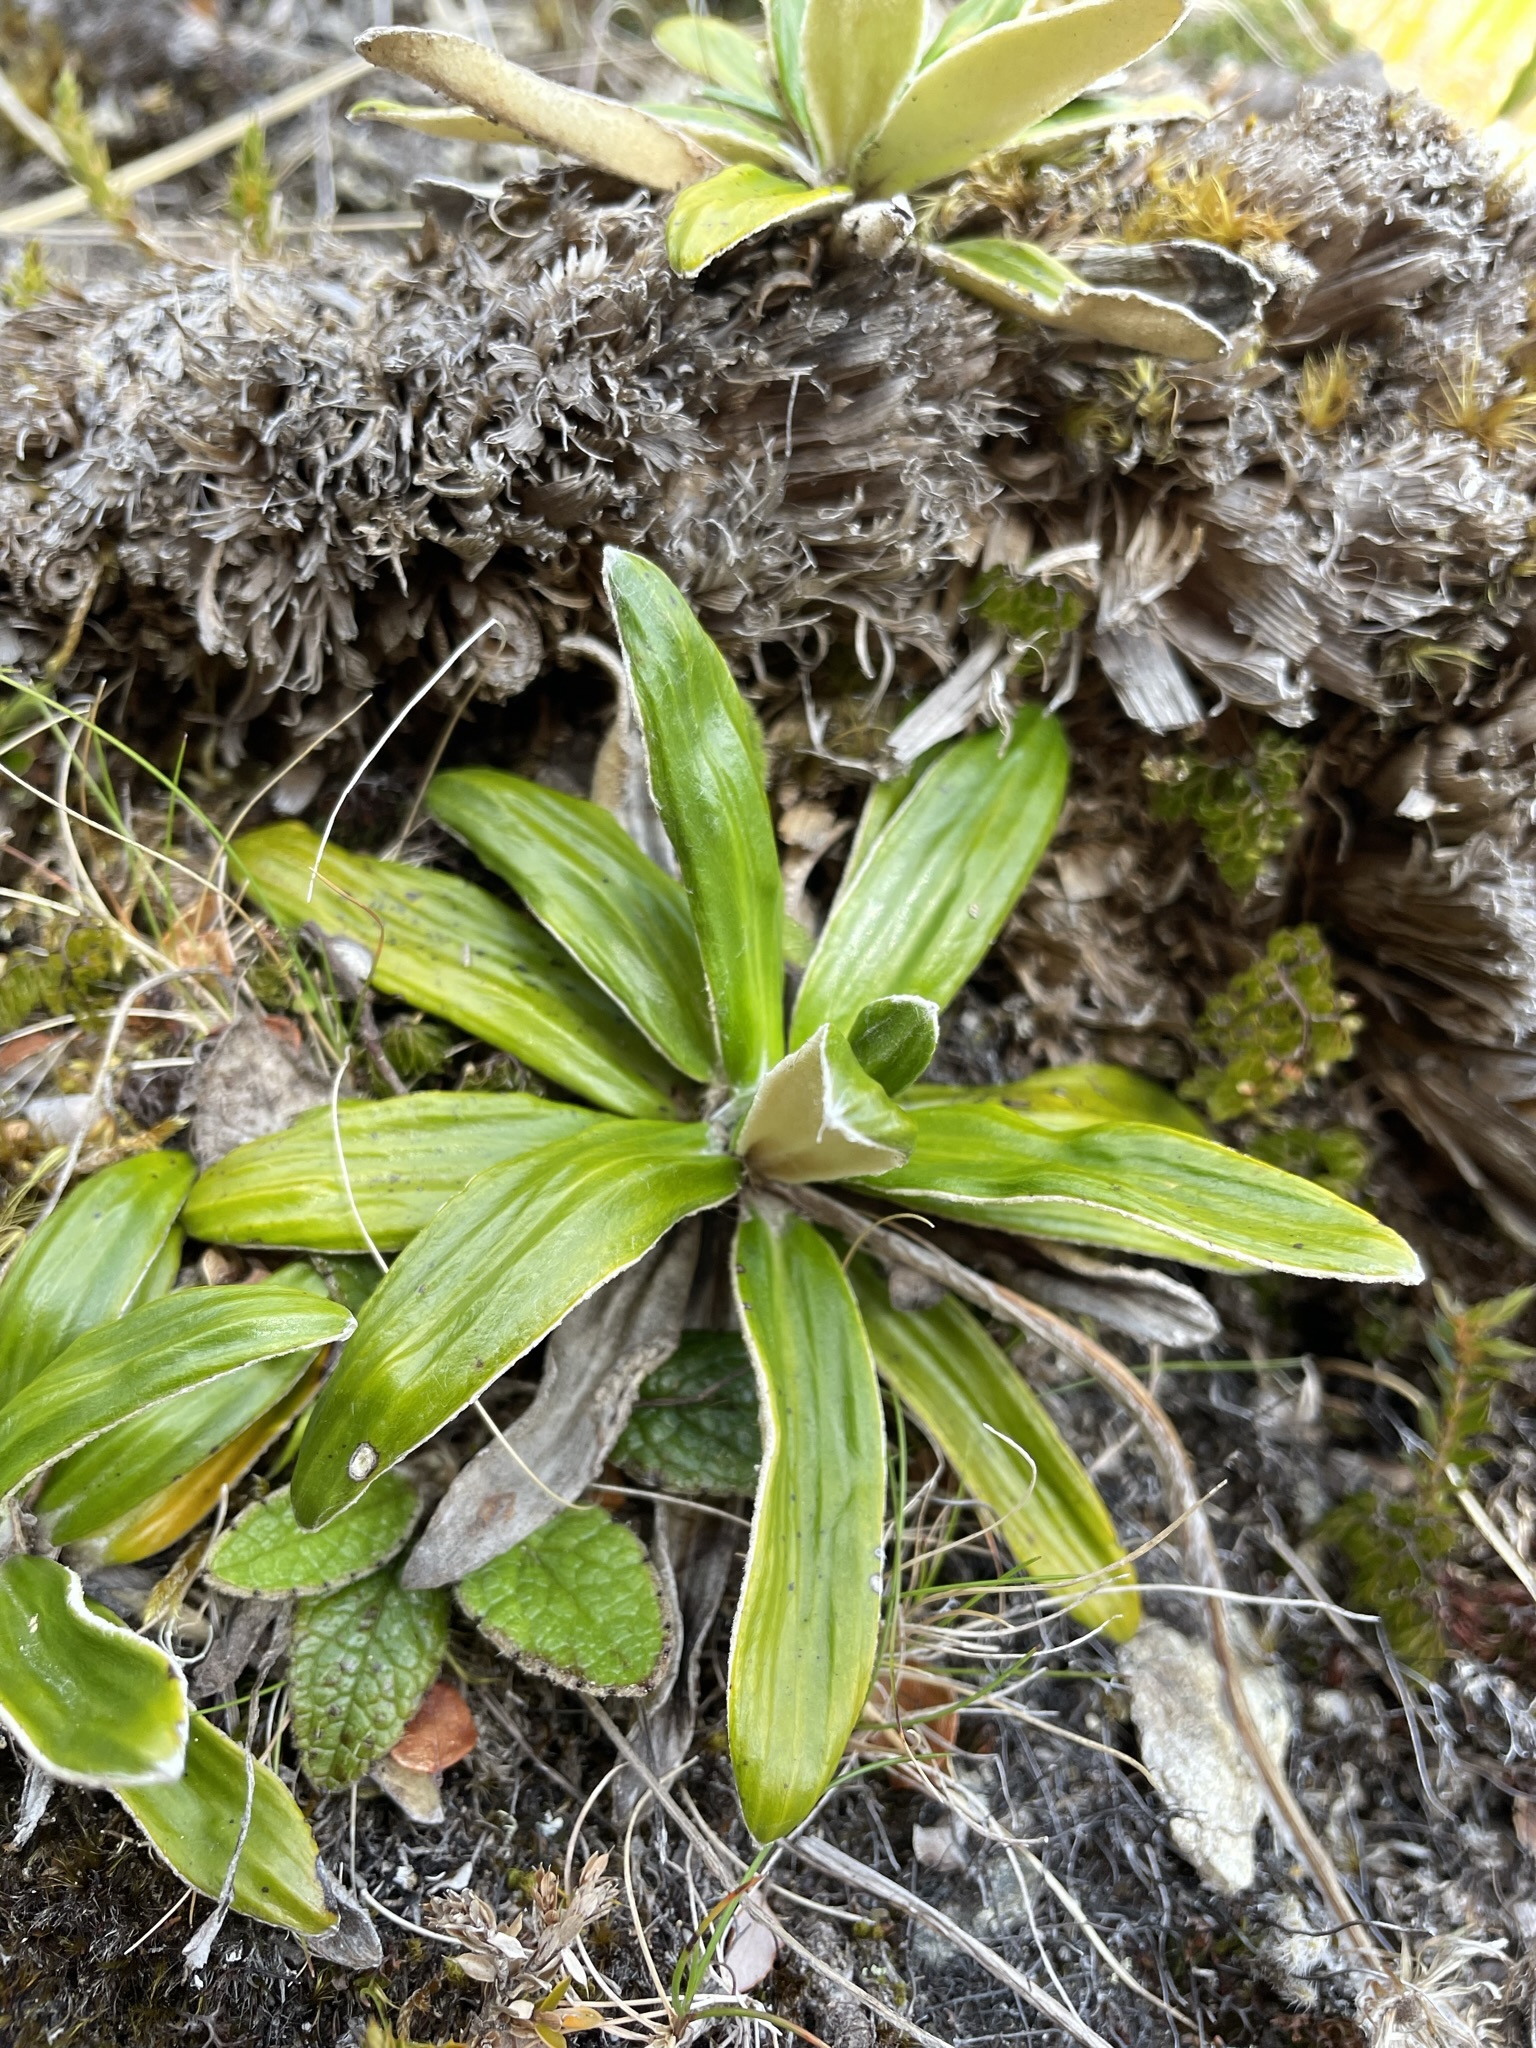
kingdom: Plantae
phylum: Tracheophyta
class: Magnoliopsida
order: Asterales
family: Asteraceae
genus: Celmisia
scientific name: Celmisia spectabilis
